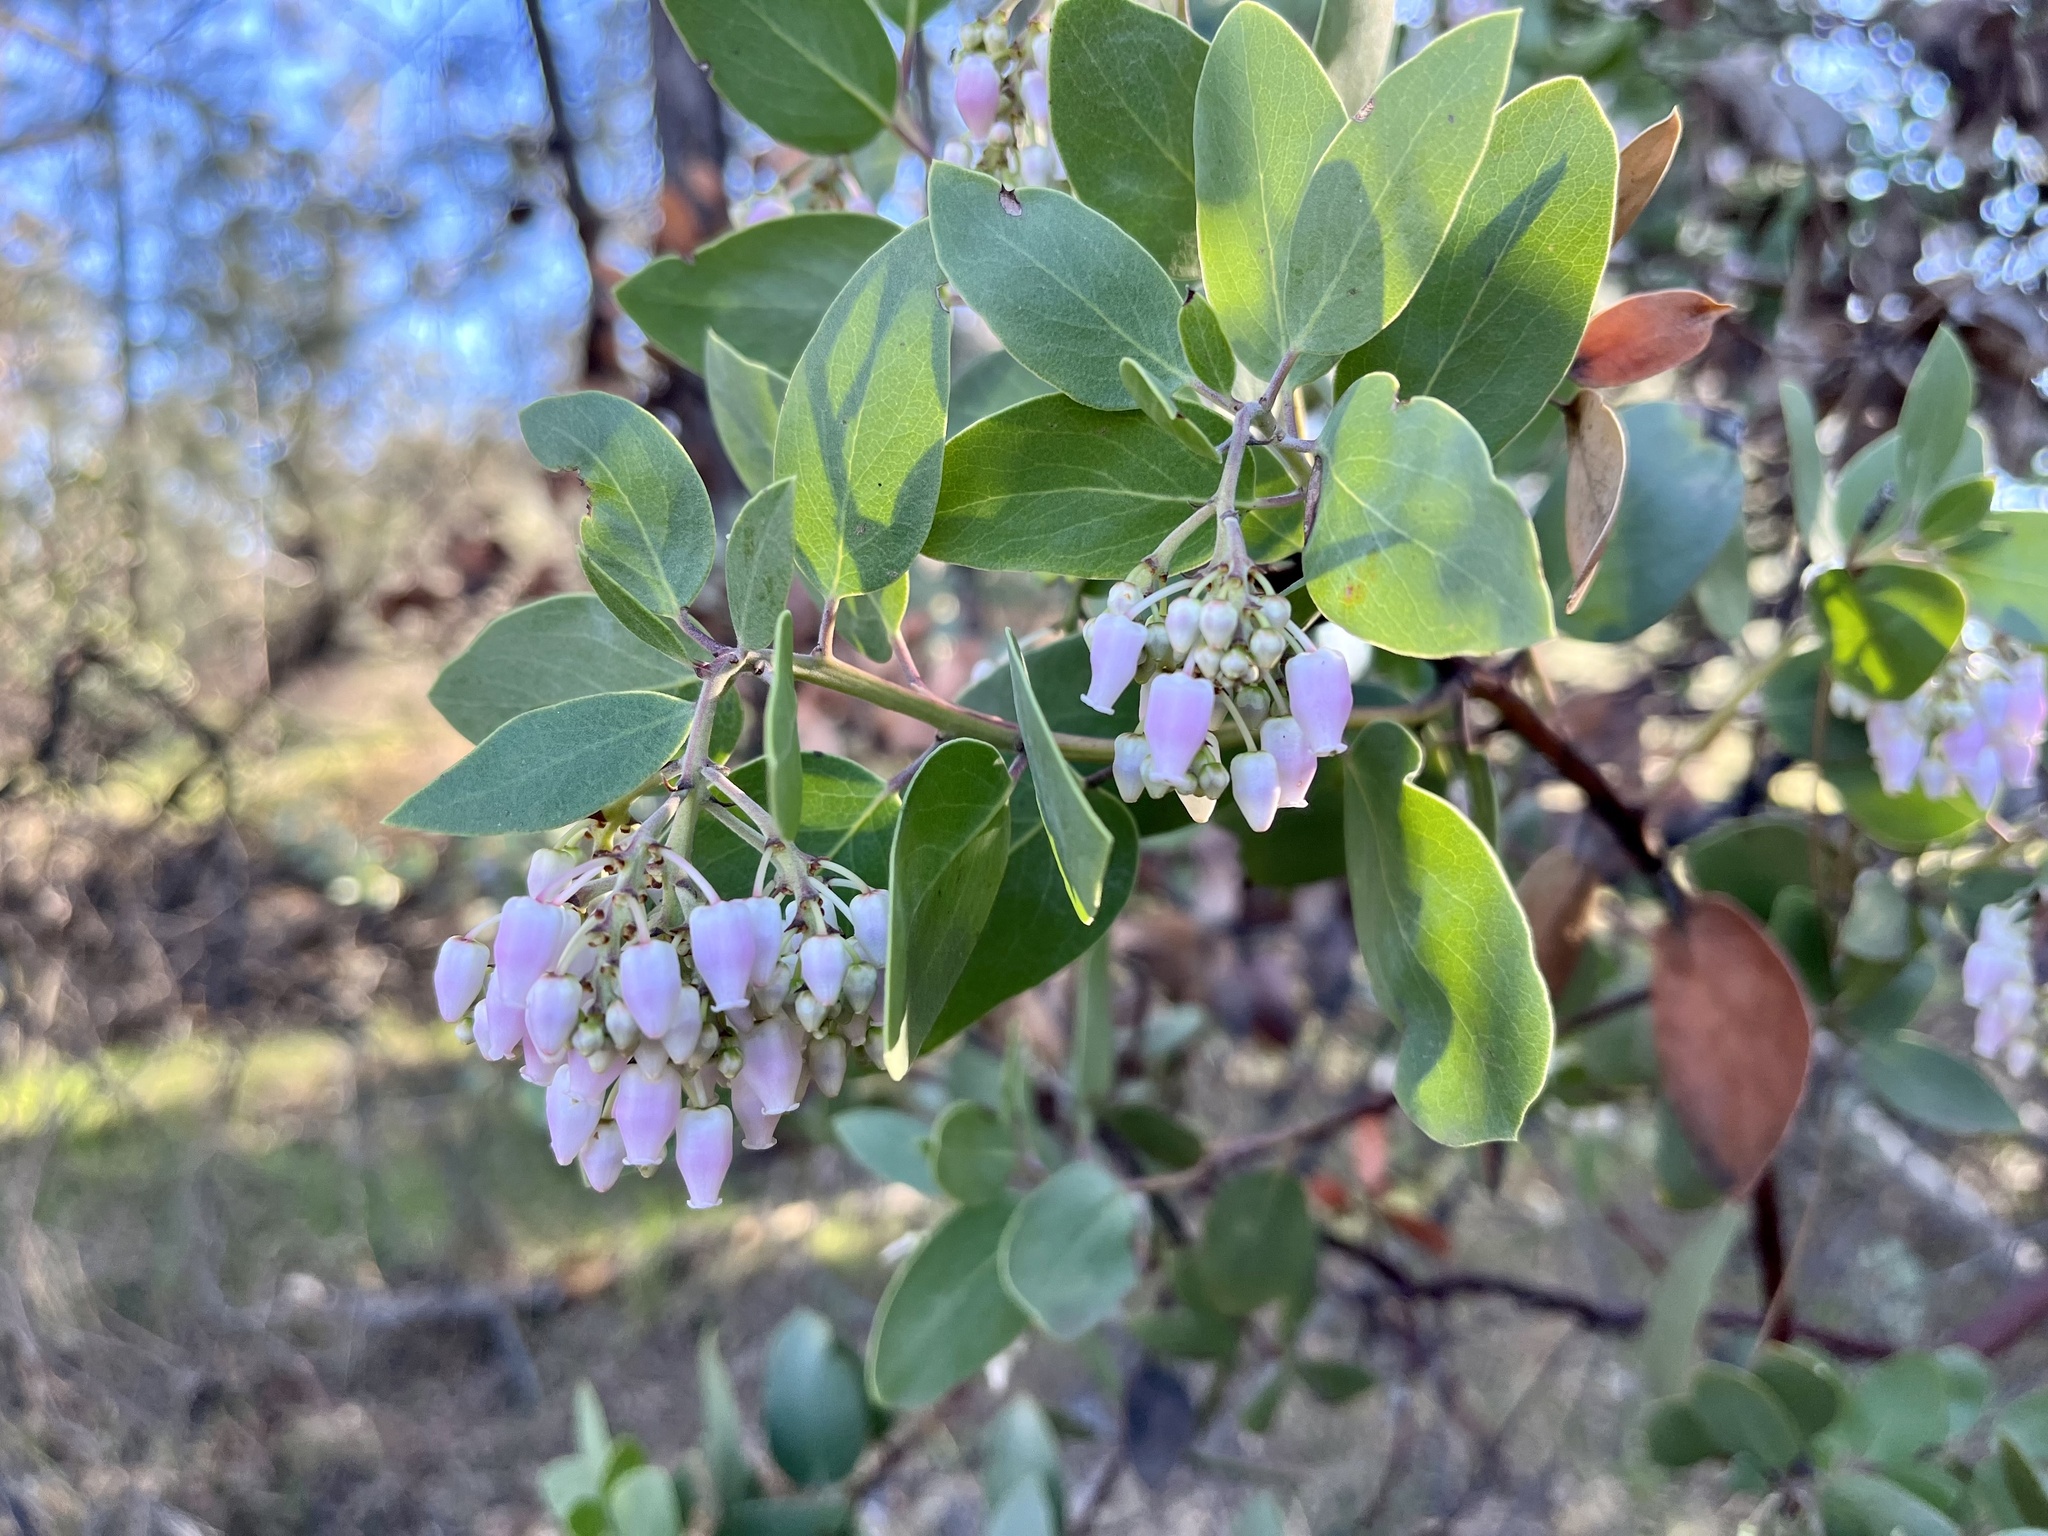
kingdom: Plantae
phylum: Tracheophyta
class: Magnoliopsida
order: Ericales
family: Ericaceae
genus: Arctostaphylos
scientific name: Arctostaphylos manzanita
